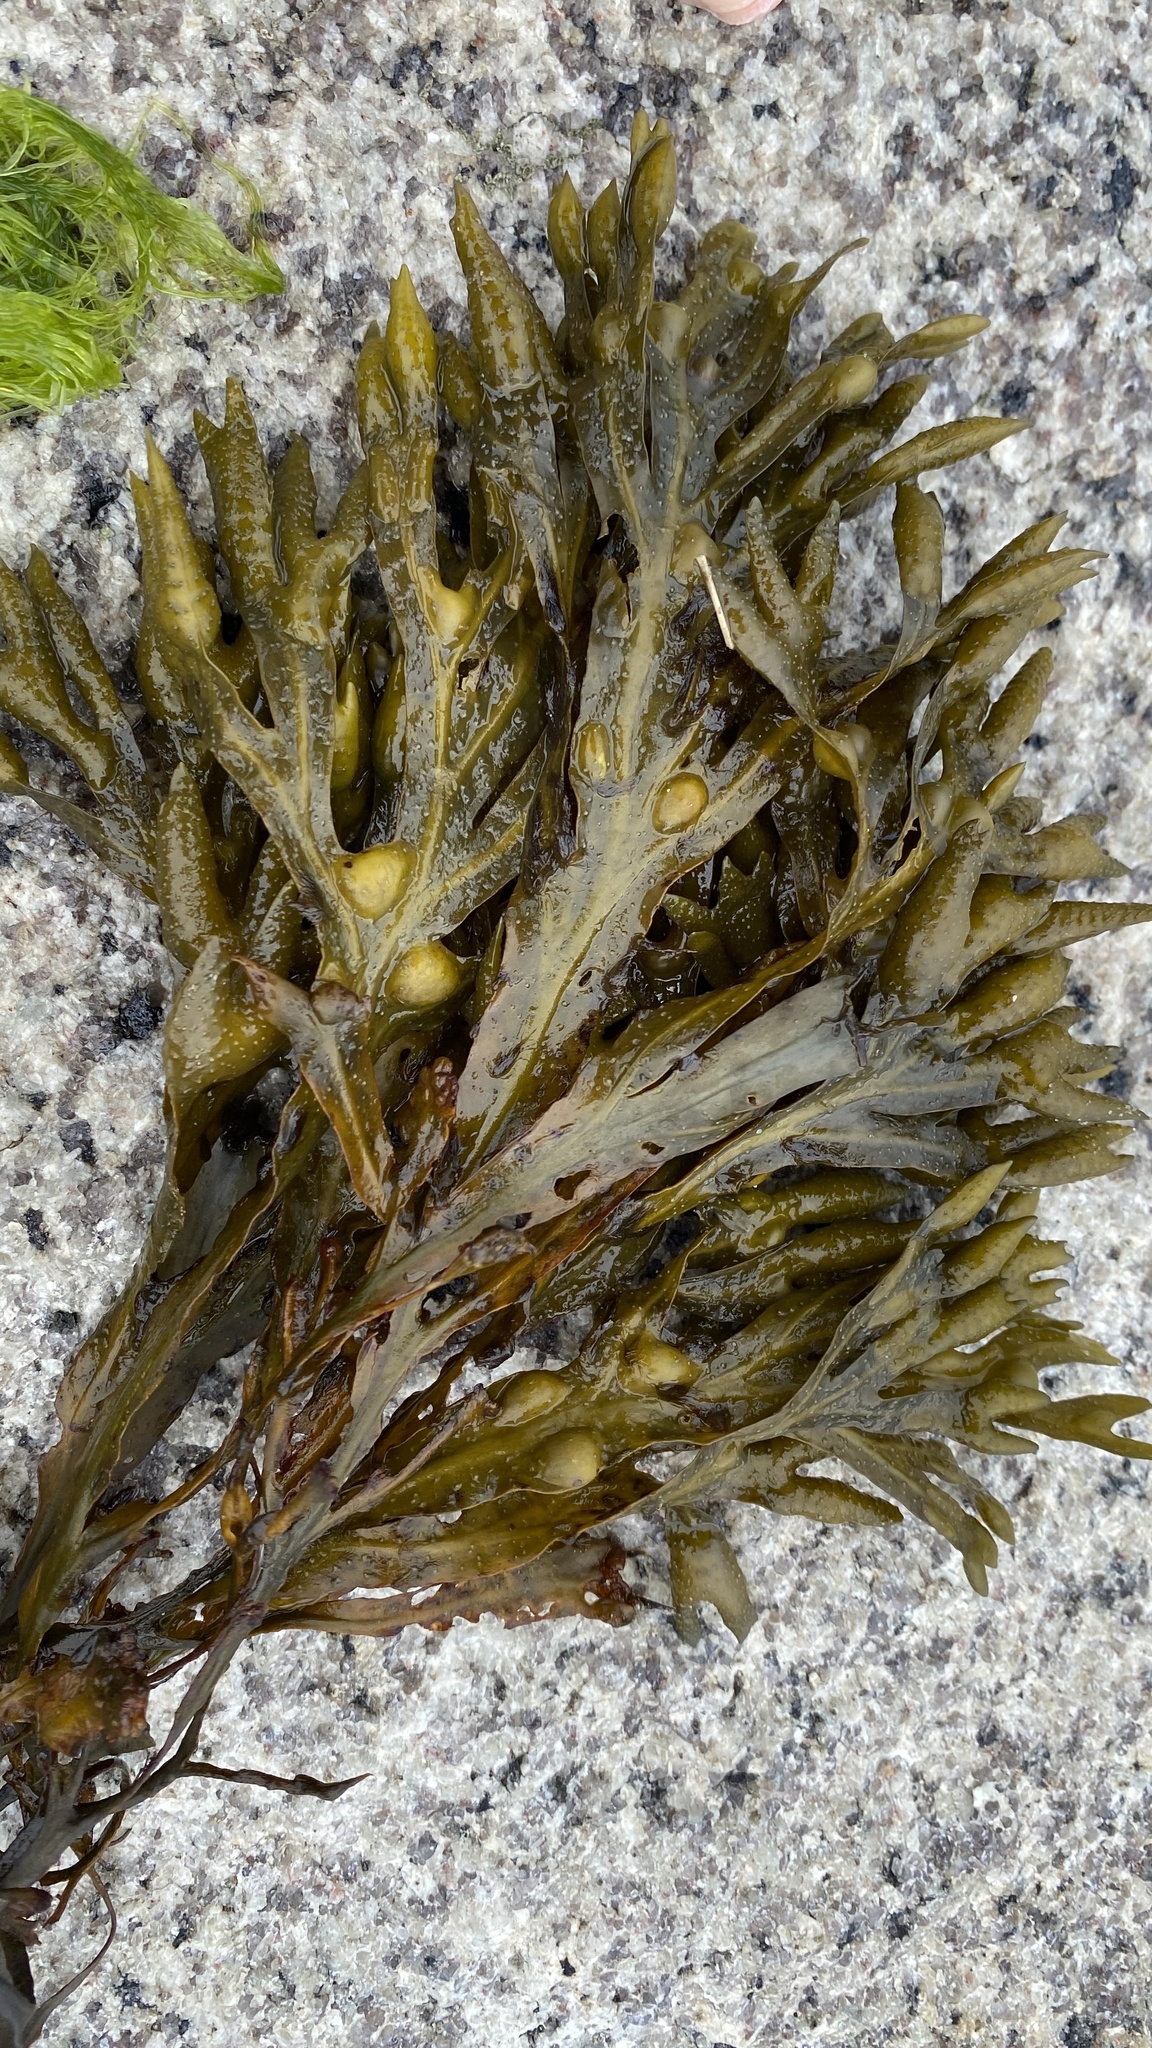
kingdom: Chromista
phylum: Ochrophyta
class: Phaeophyceae
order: Fucales
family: Fucaceae
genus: Fucus
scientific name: Fucus vesiculosus
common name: Bladder wrack
